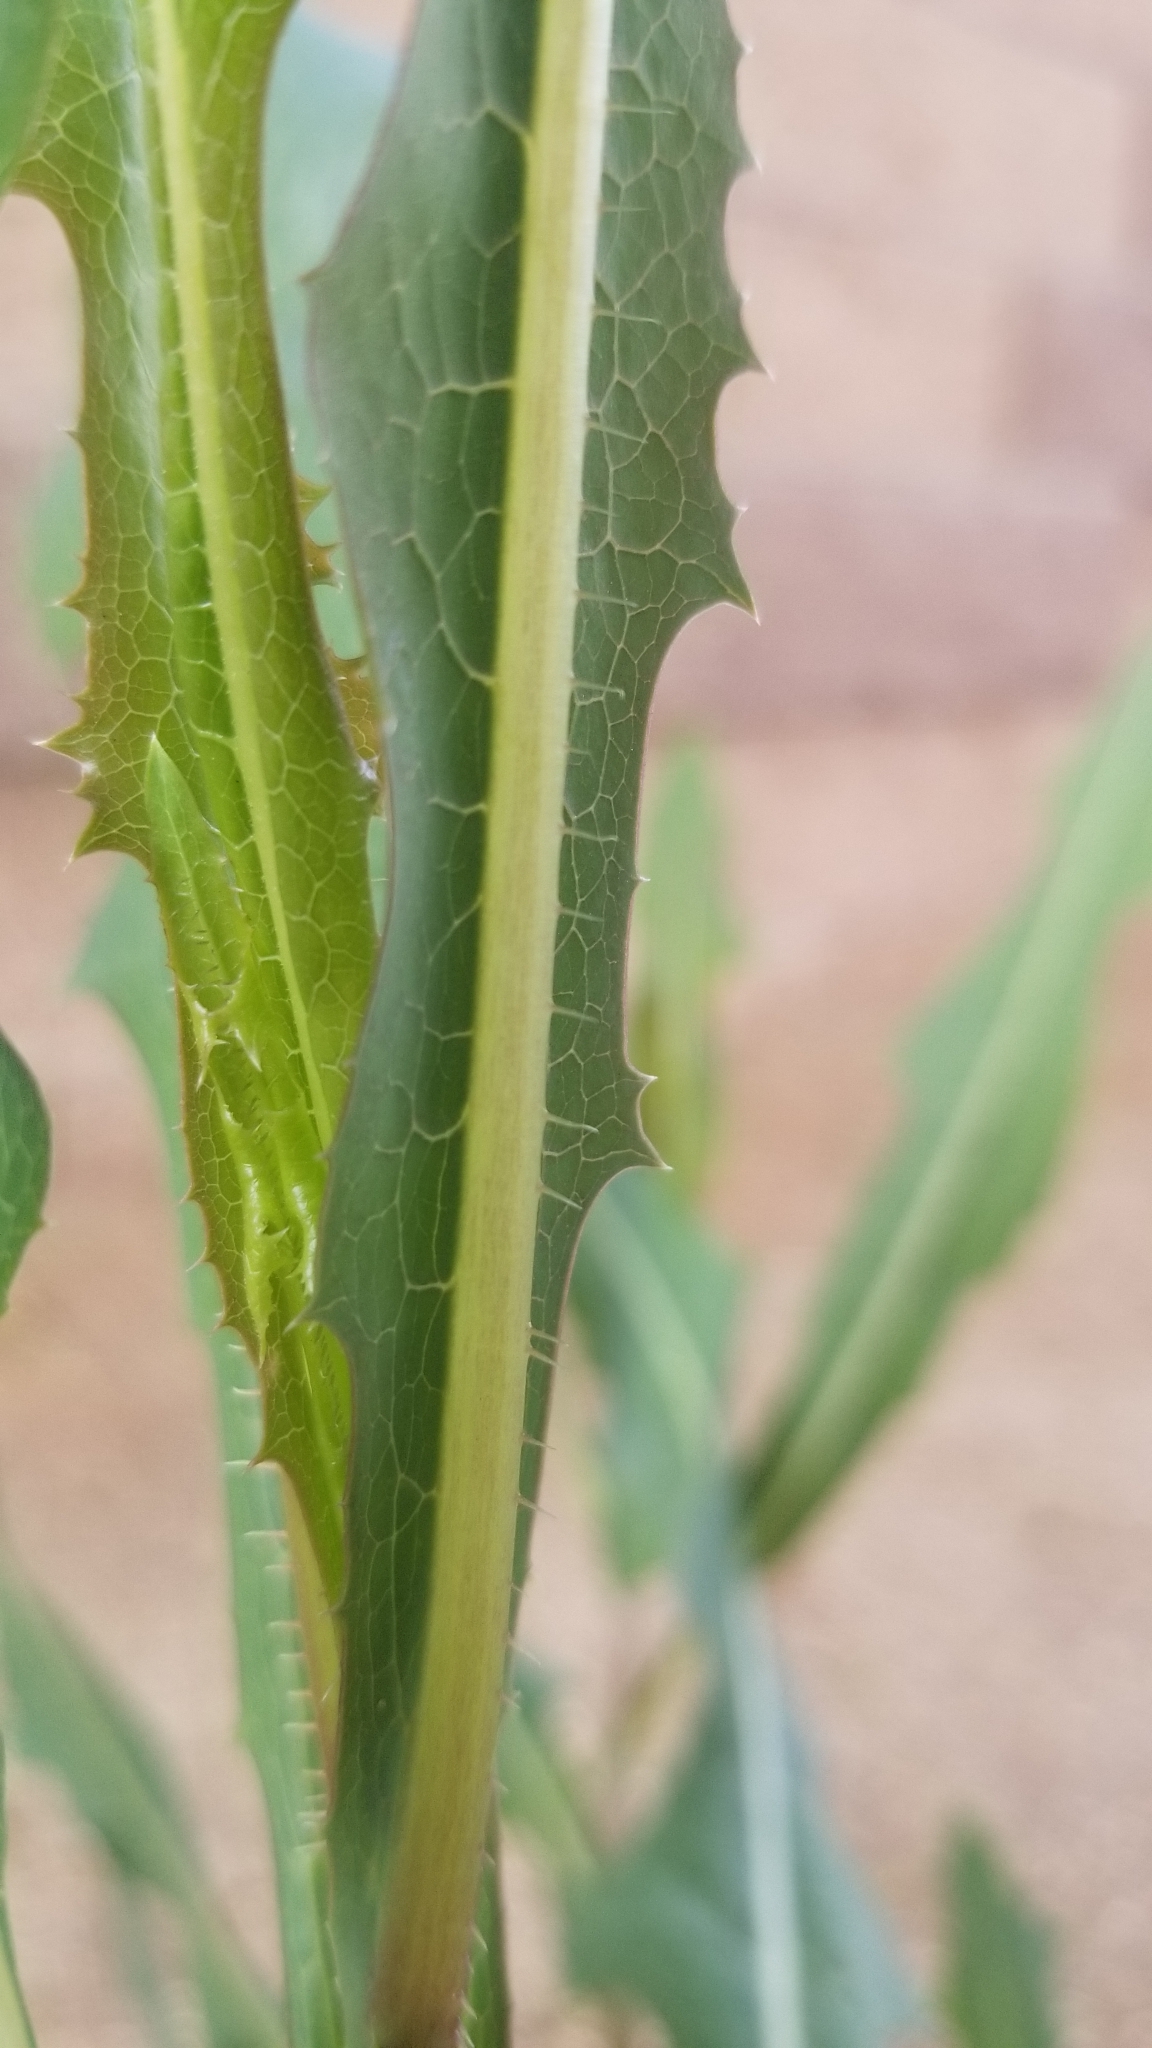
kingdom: Plantae
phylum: Tracheophyta
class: Magnoliopsida
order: Asterales
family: Asteraceae
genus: Lactuca
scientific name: Lactuca serriola
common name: Prickly lettuce
